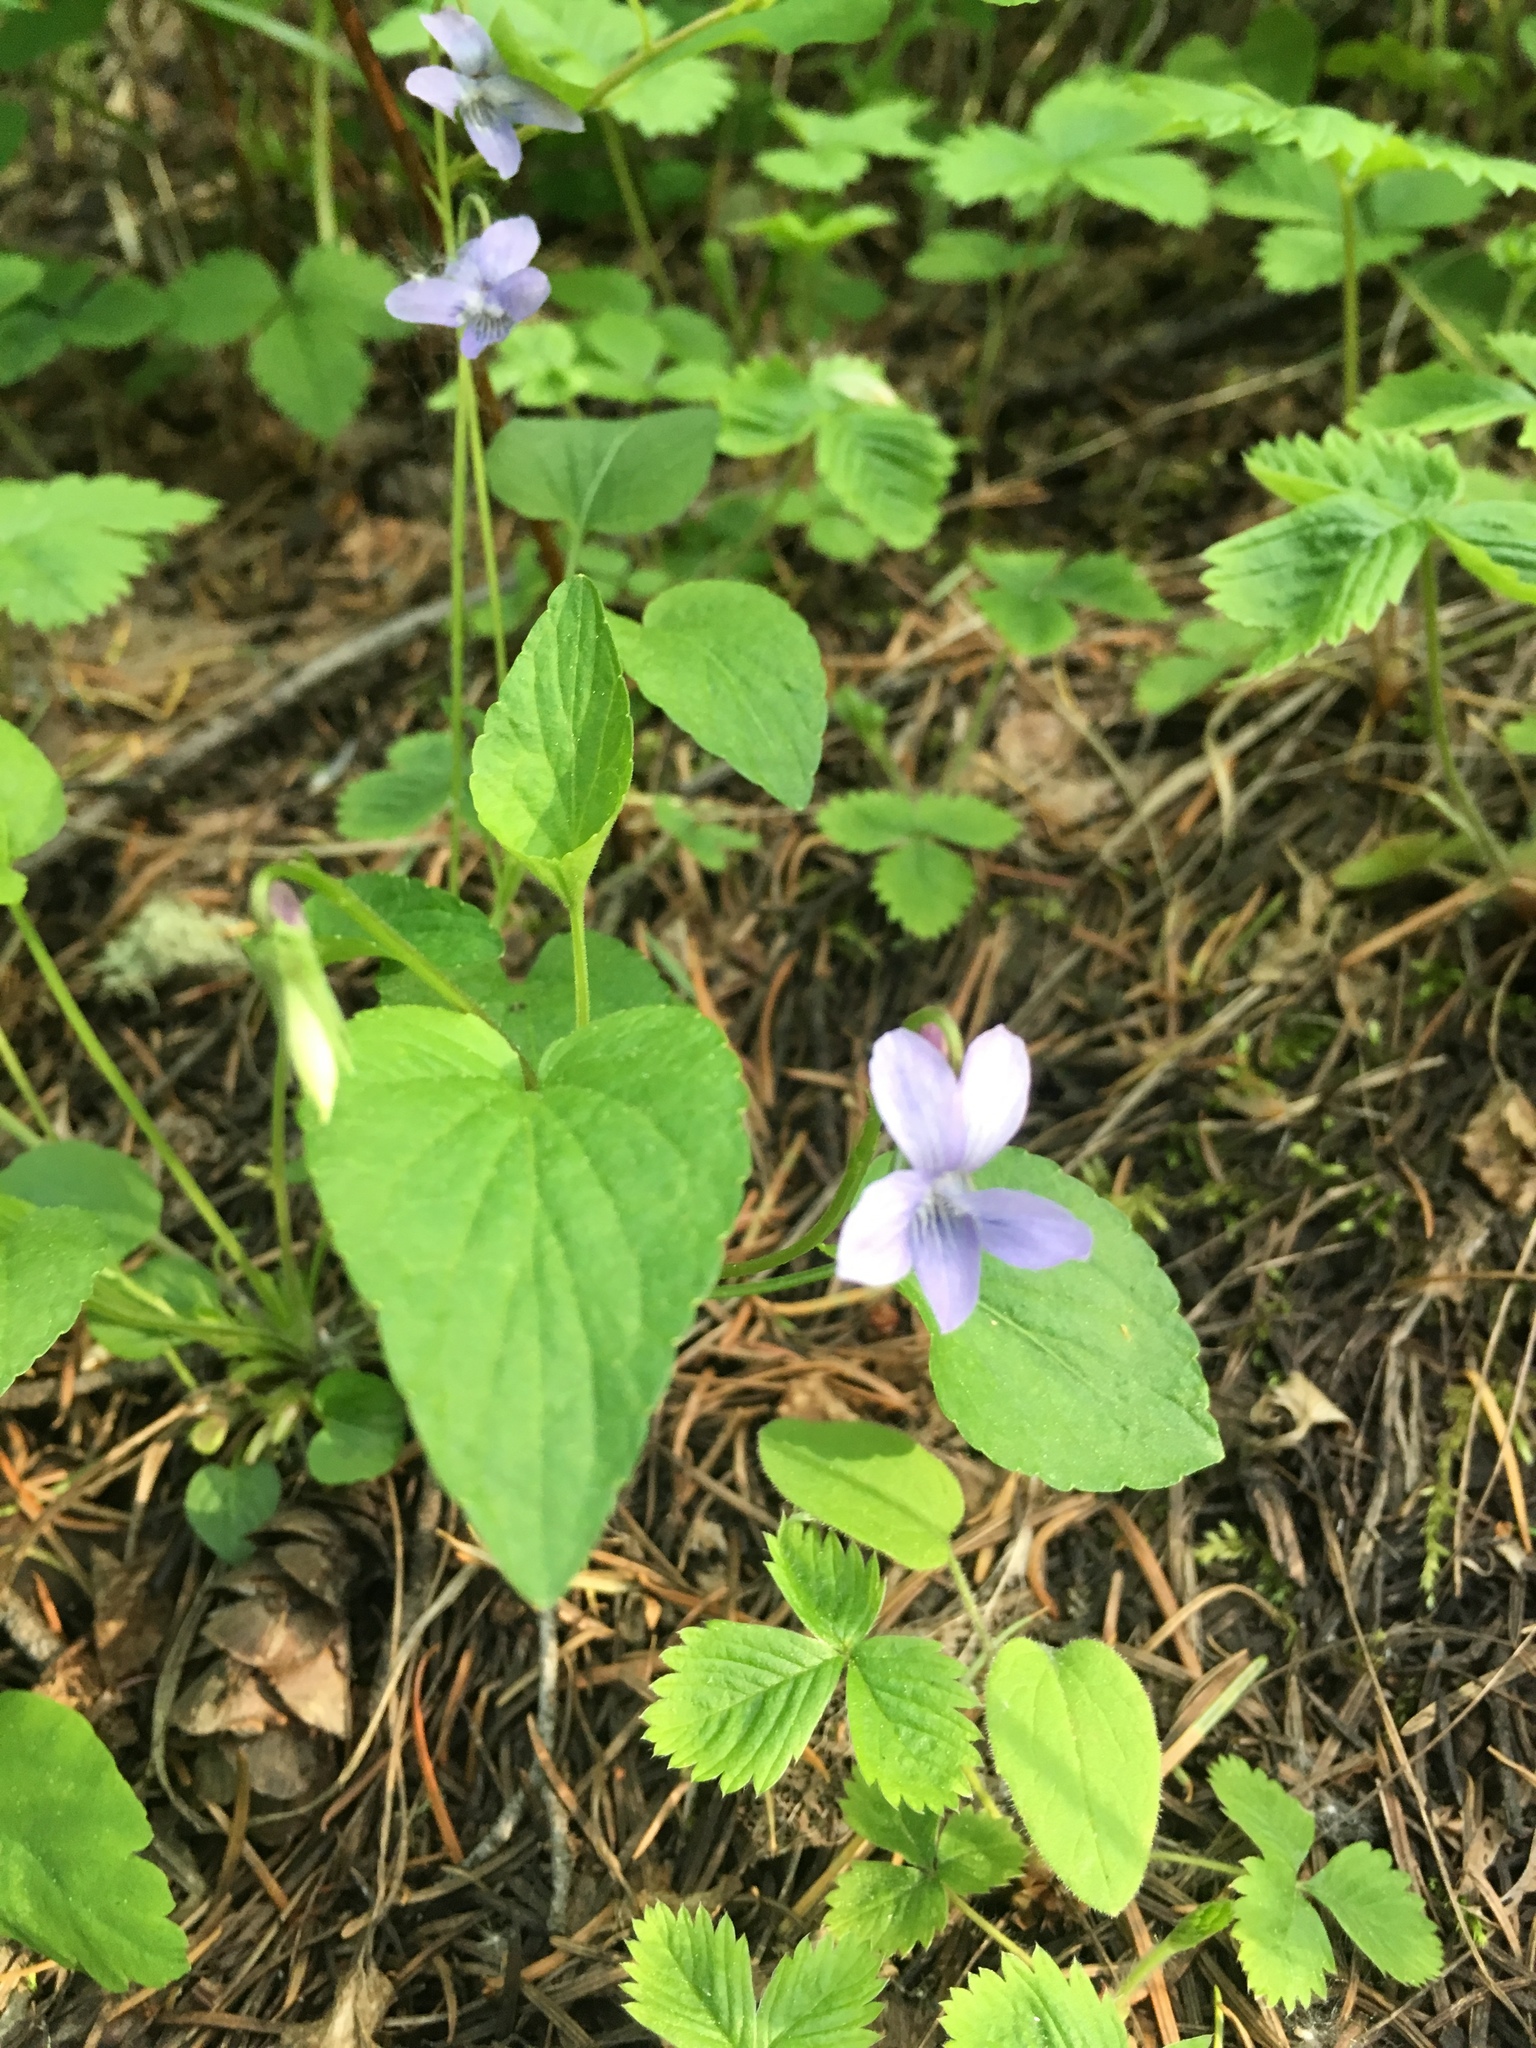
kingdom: Plantae
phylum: Tracheophyta
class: Magnoliopsida
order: Malpighiales
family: Violaceae
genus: Viola
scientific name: Viola adunca
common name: Sand violet
